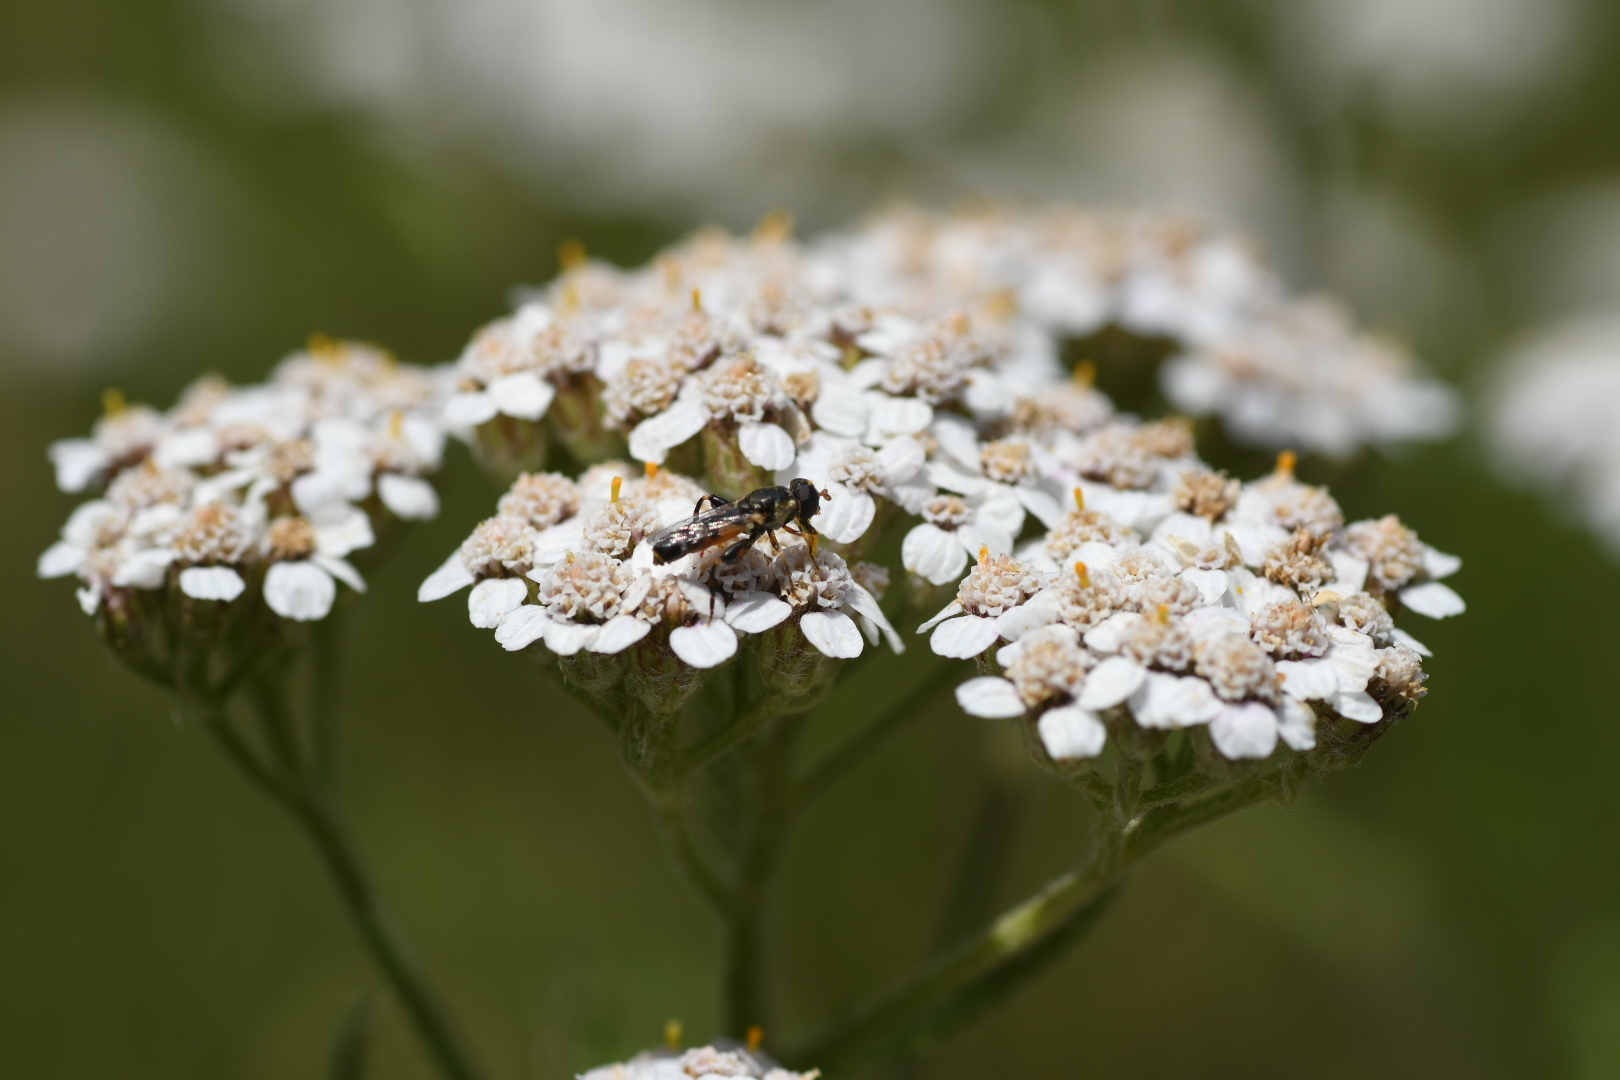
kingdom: Animalia
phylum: Arthropoda
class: Insecta
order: Diptera
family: Syrphidae
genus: Syritta
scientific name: Syritta pipiens
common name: Hover fly
